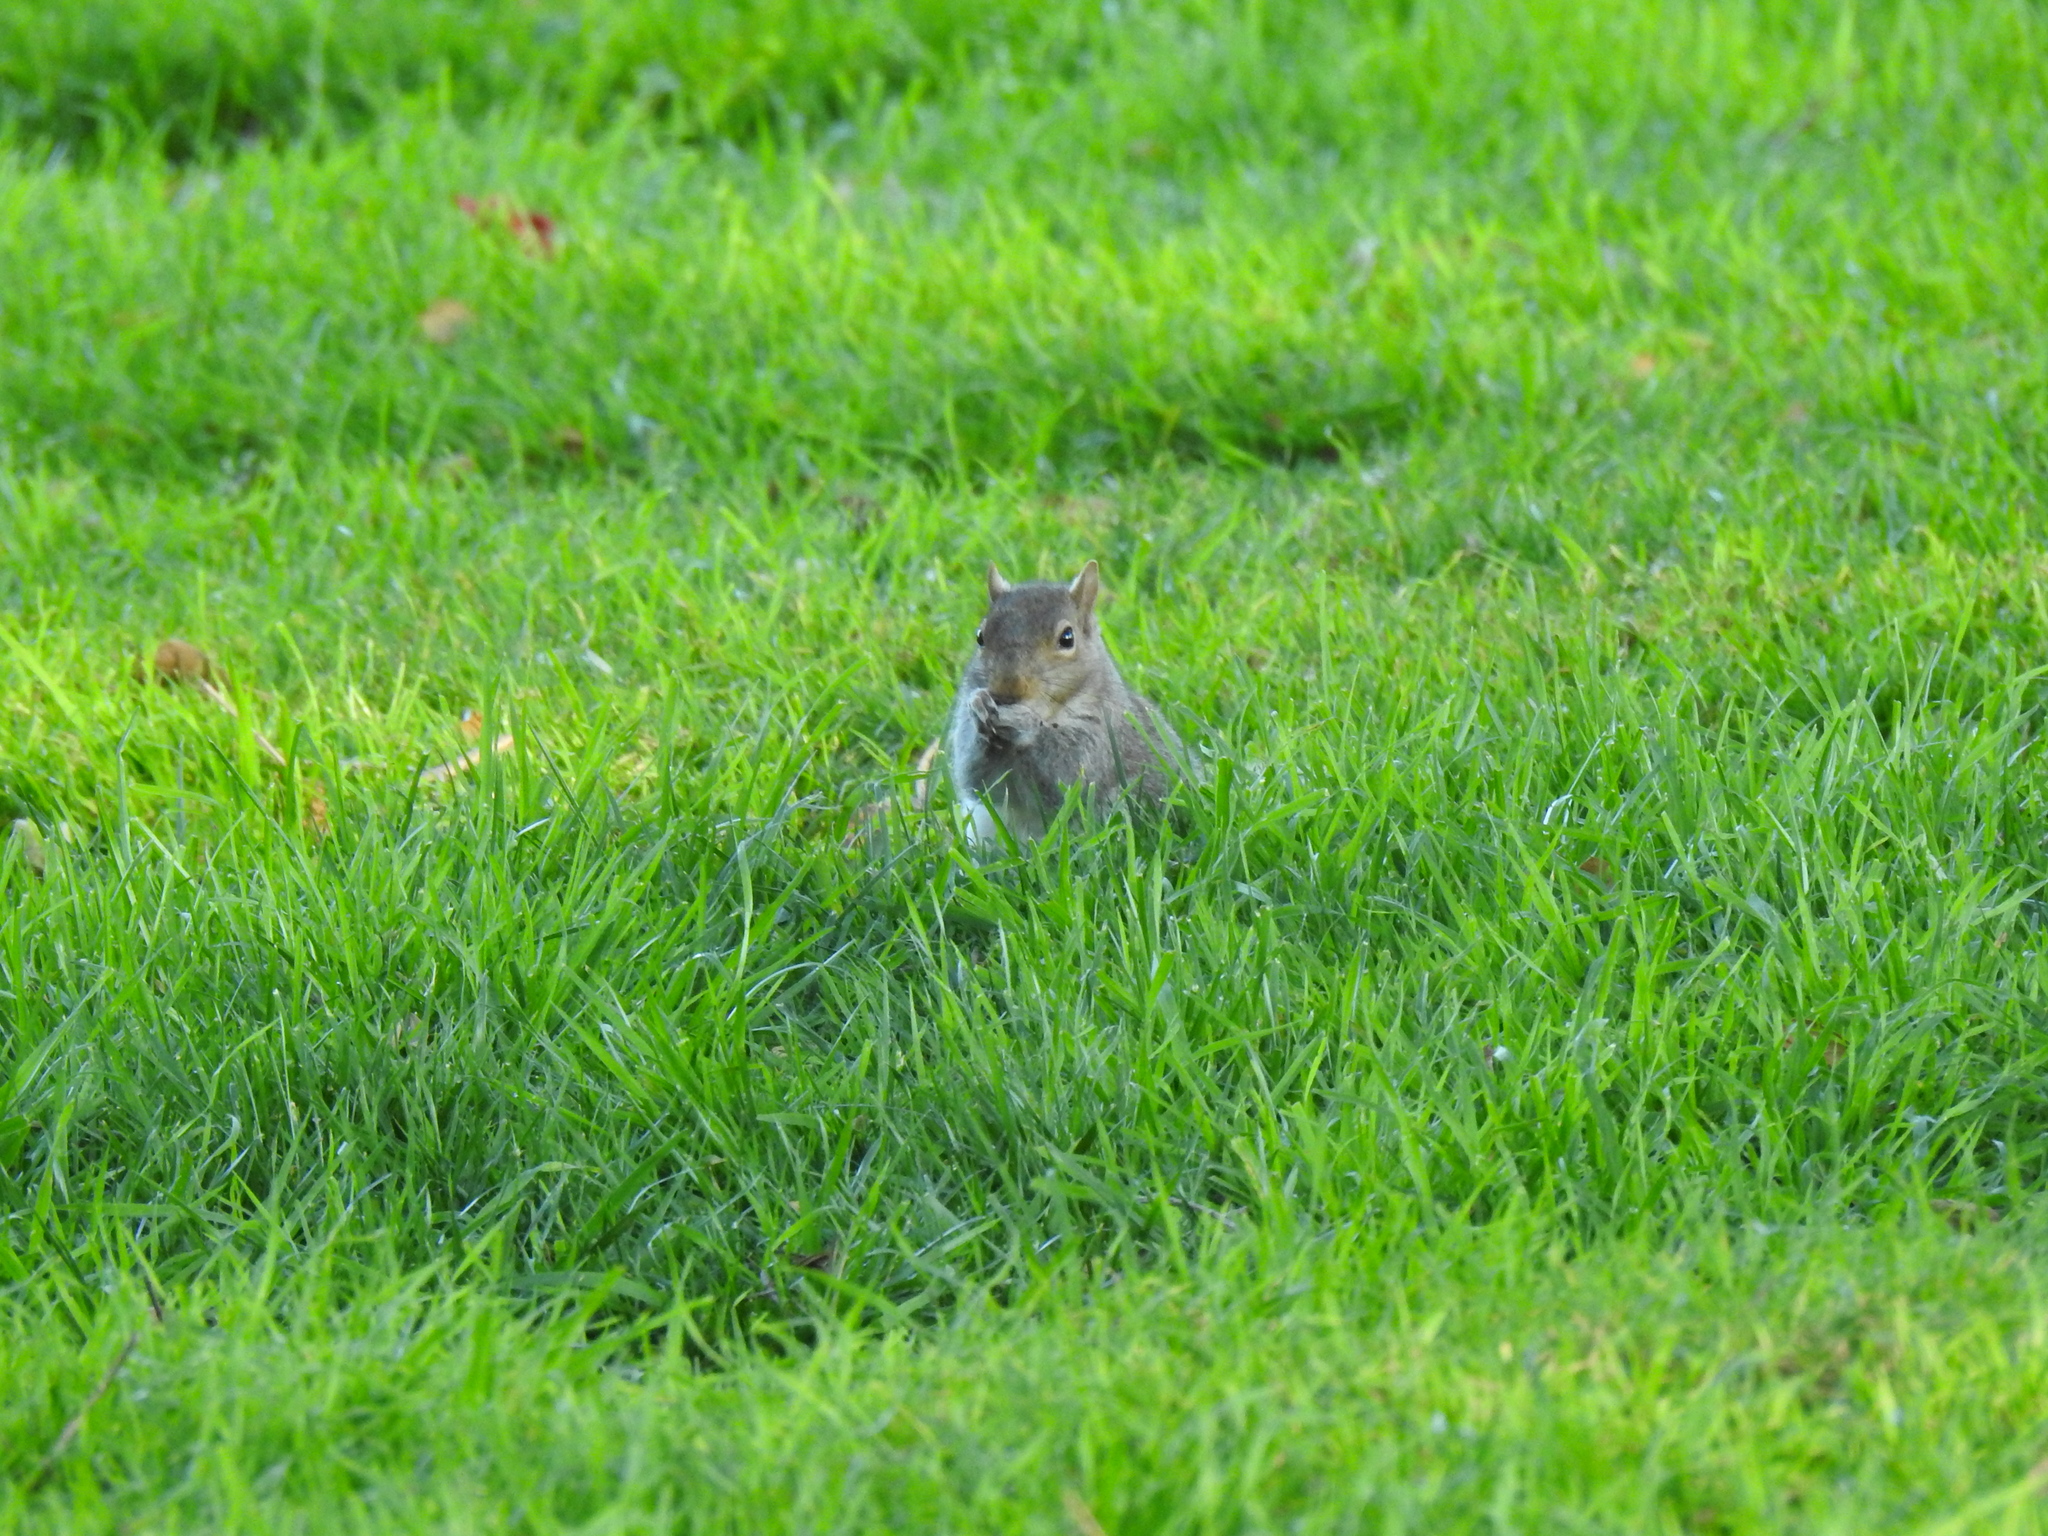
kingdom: Animalia
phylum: Chordata
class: Mammalia
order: Rodentia
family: Sciuridae
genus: Sciurus
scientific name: Sciurus carolinensis
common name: Eastern gray squirrel
